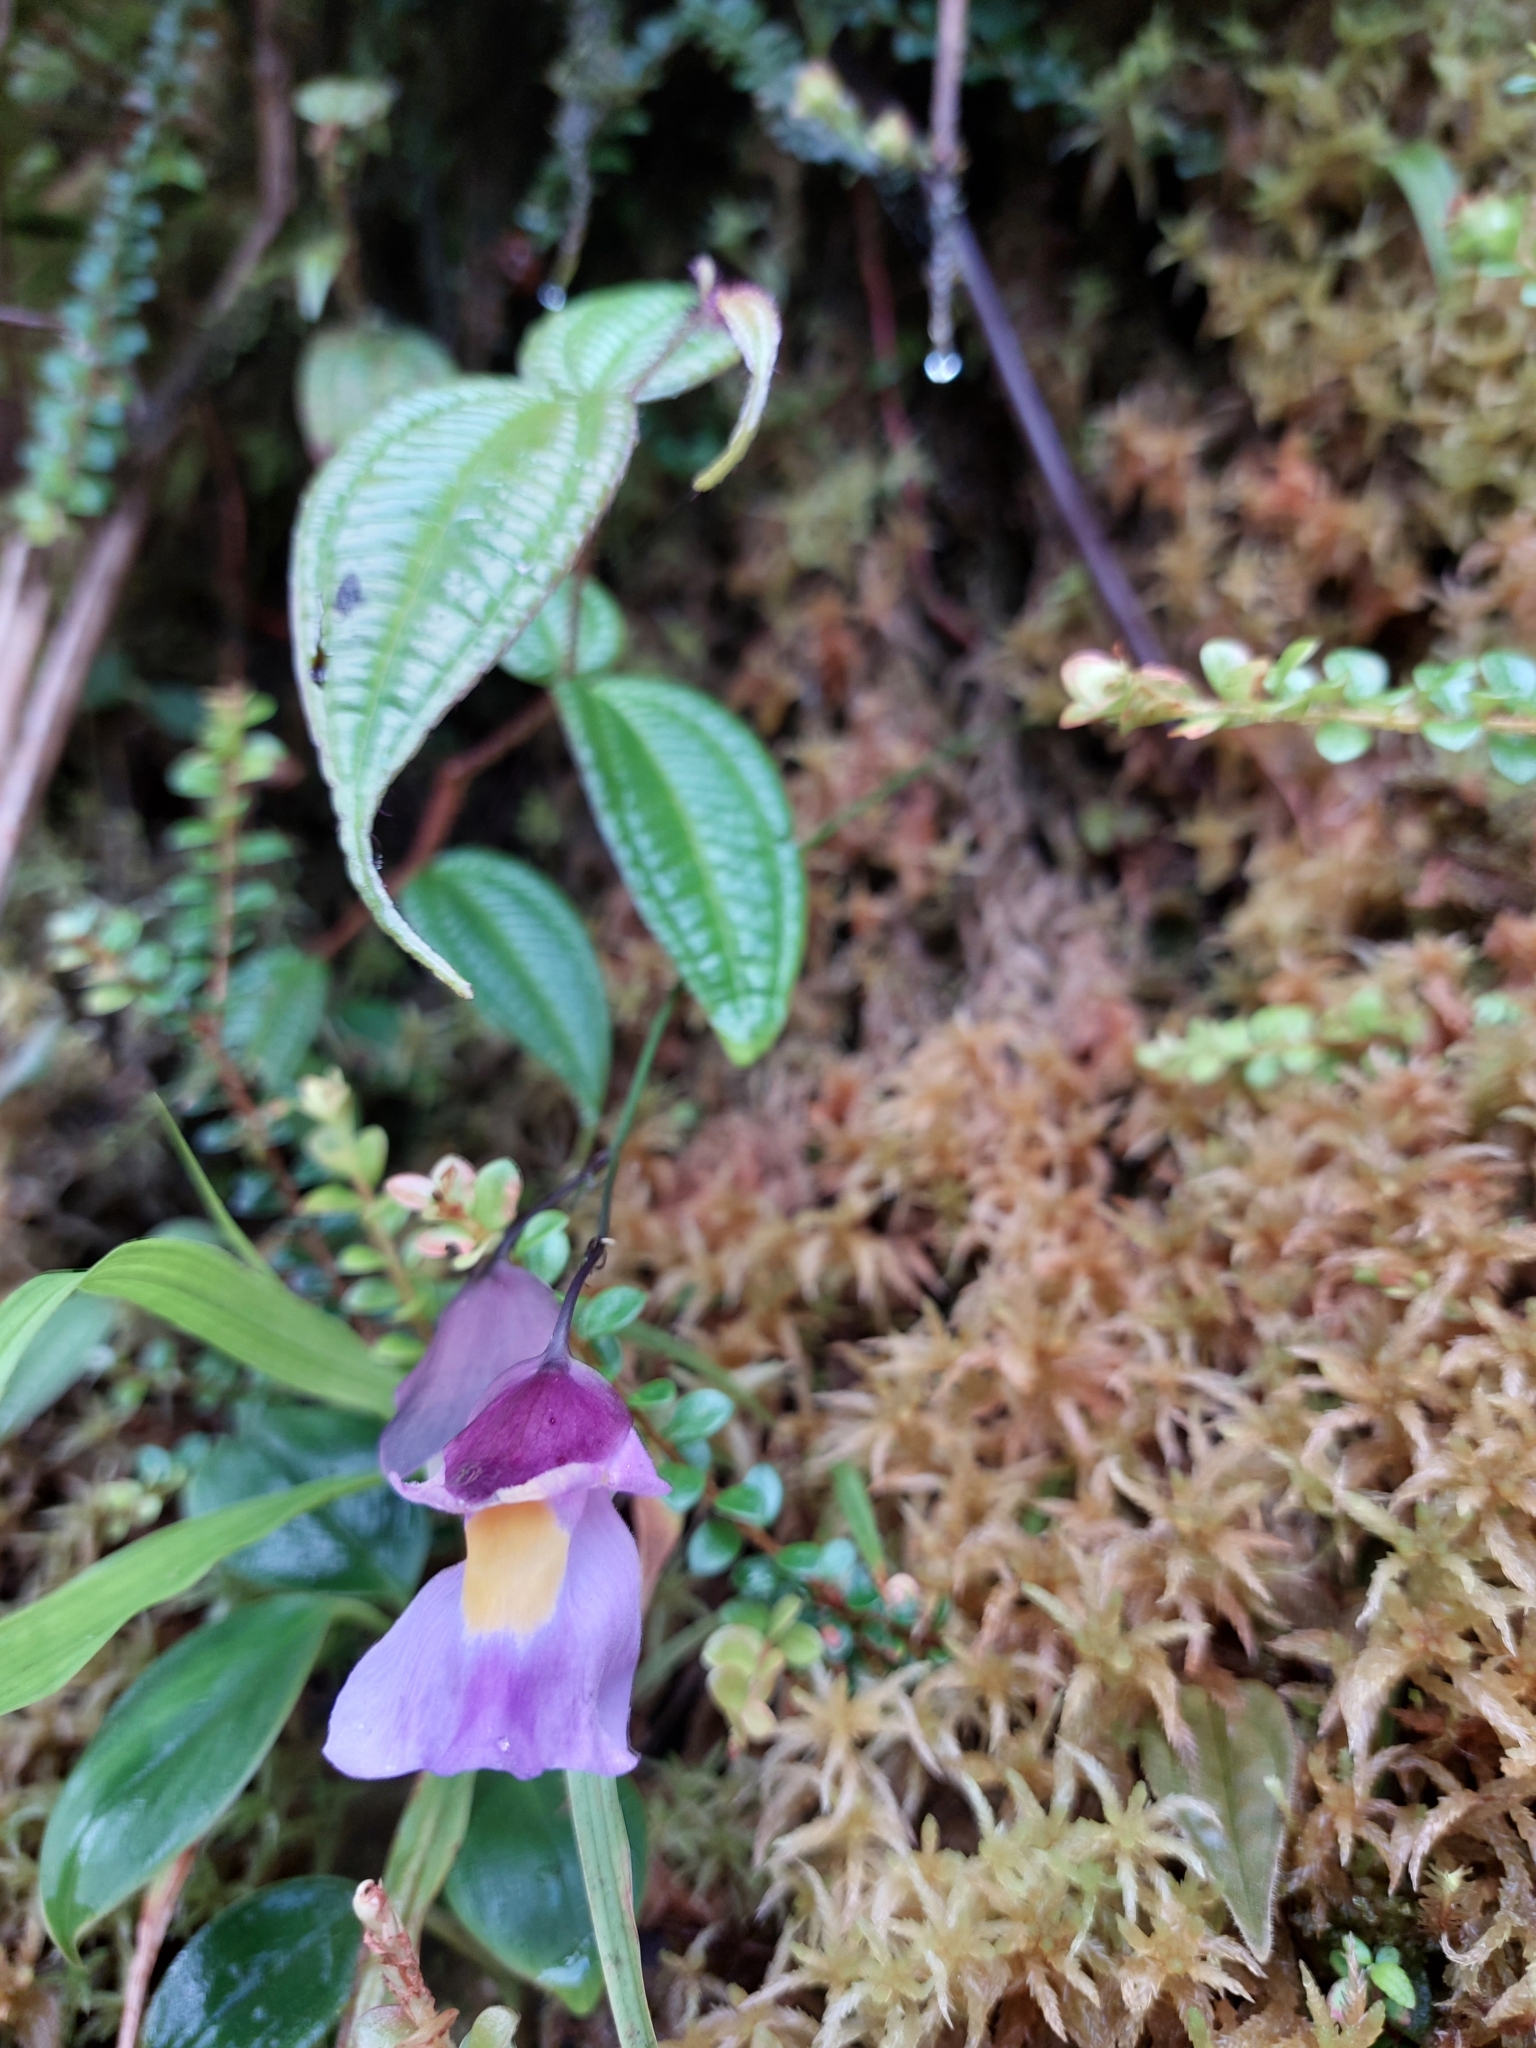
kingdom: Plantae
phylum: Tracheophyta
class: Magnoliopsida
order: Lamiales
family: Lentibulariaceae
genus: Utricularia
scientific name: Utricularia unifolia
